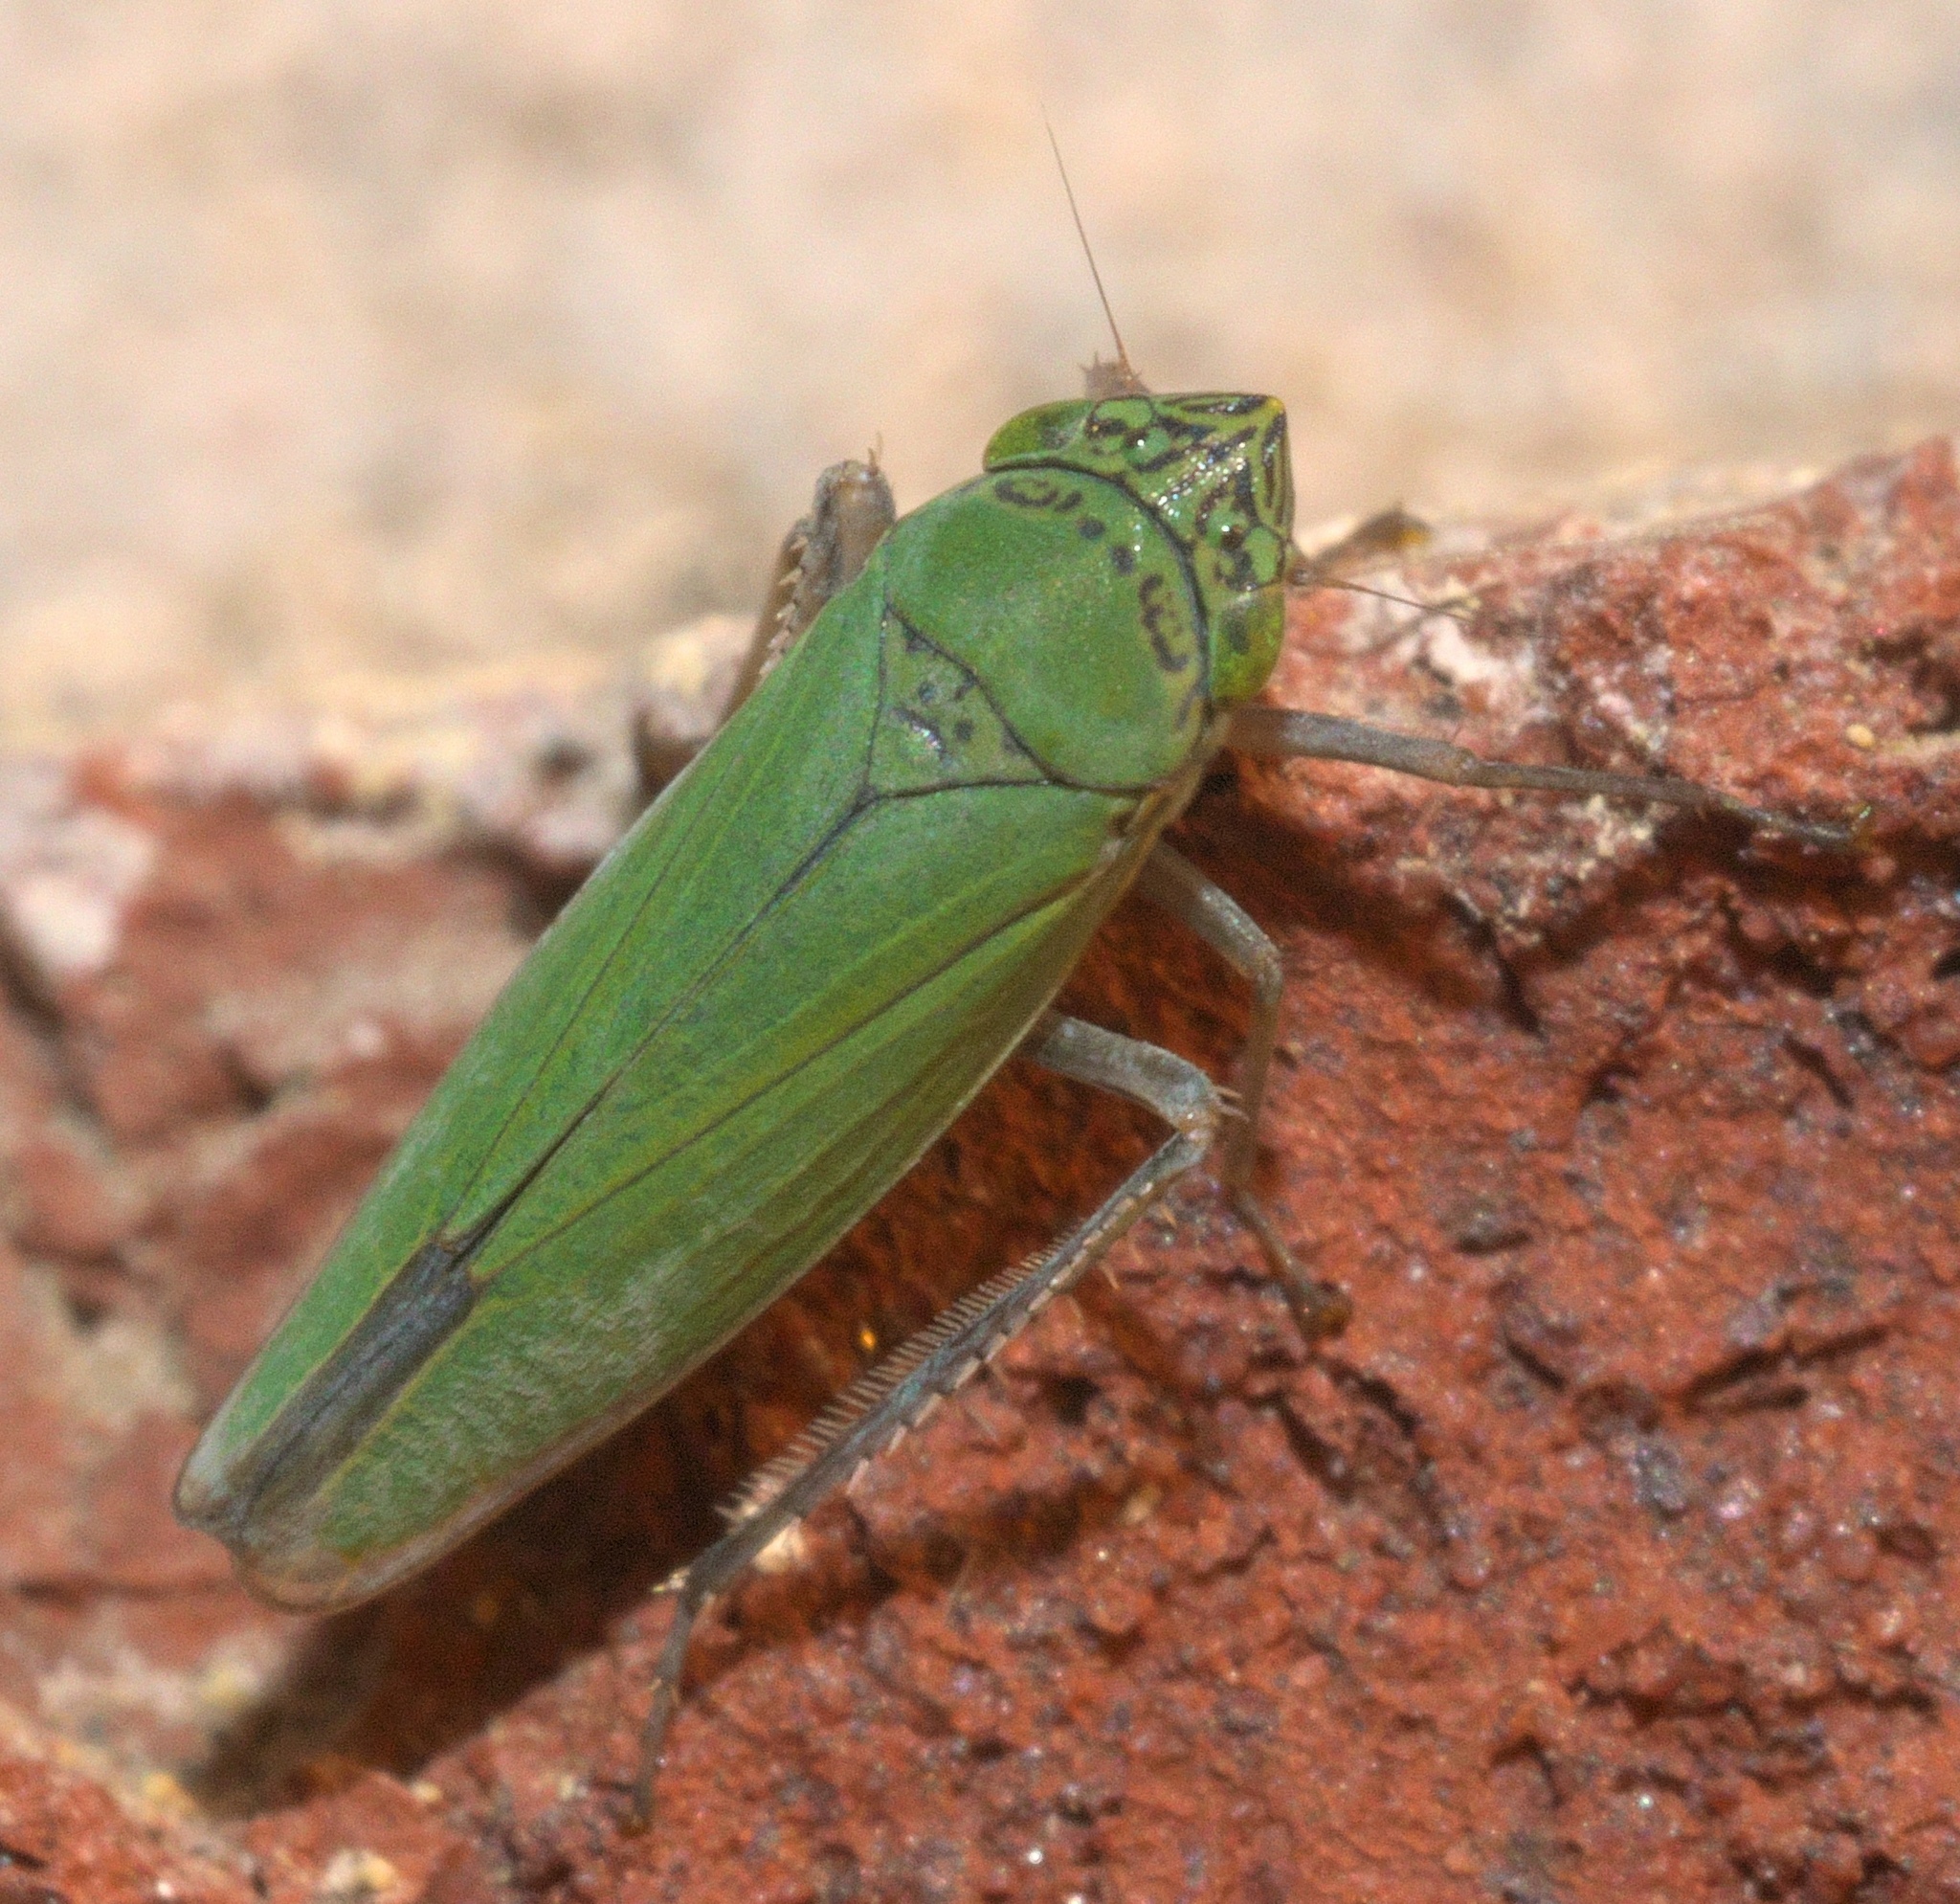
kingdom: Animalia
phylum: Arthropoda
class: Insecta
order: Hemiptera
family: Cicadellidae
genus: Draeculacephala
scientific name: Draeculacephala inscripta
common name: Leafhopper
